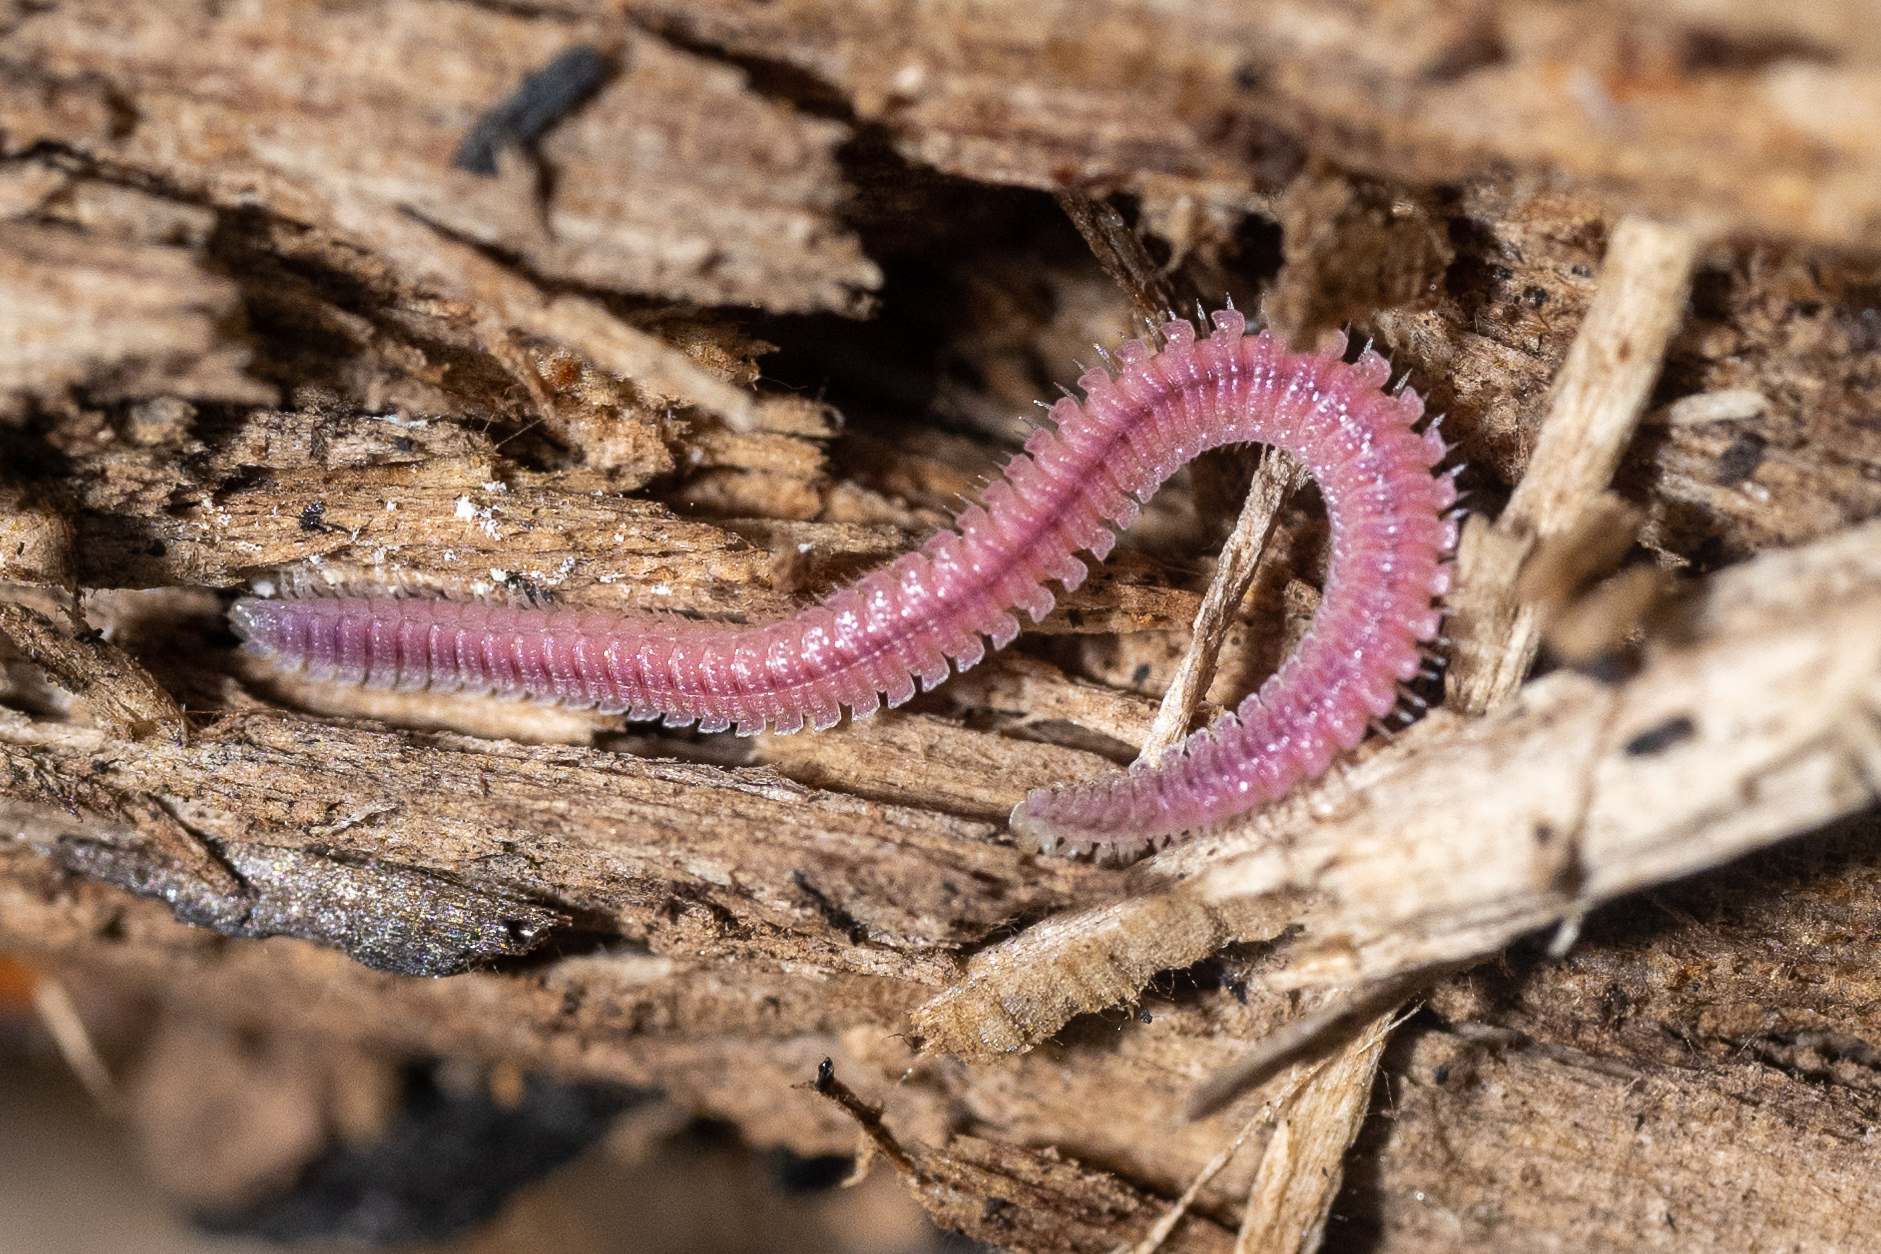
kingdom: Animalia
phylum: Arthropoda
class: Diplopoda
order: Platydesmida
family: Andrognathidae
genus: Gosodesmus
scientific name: Gosodesmus claremontus
